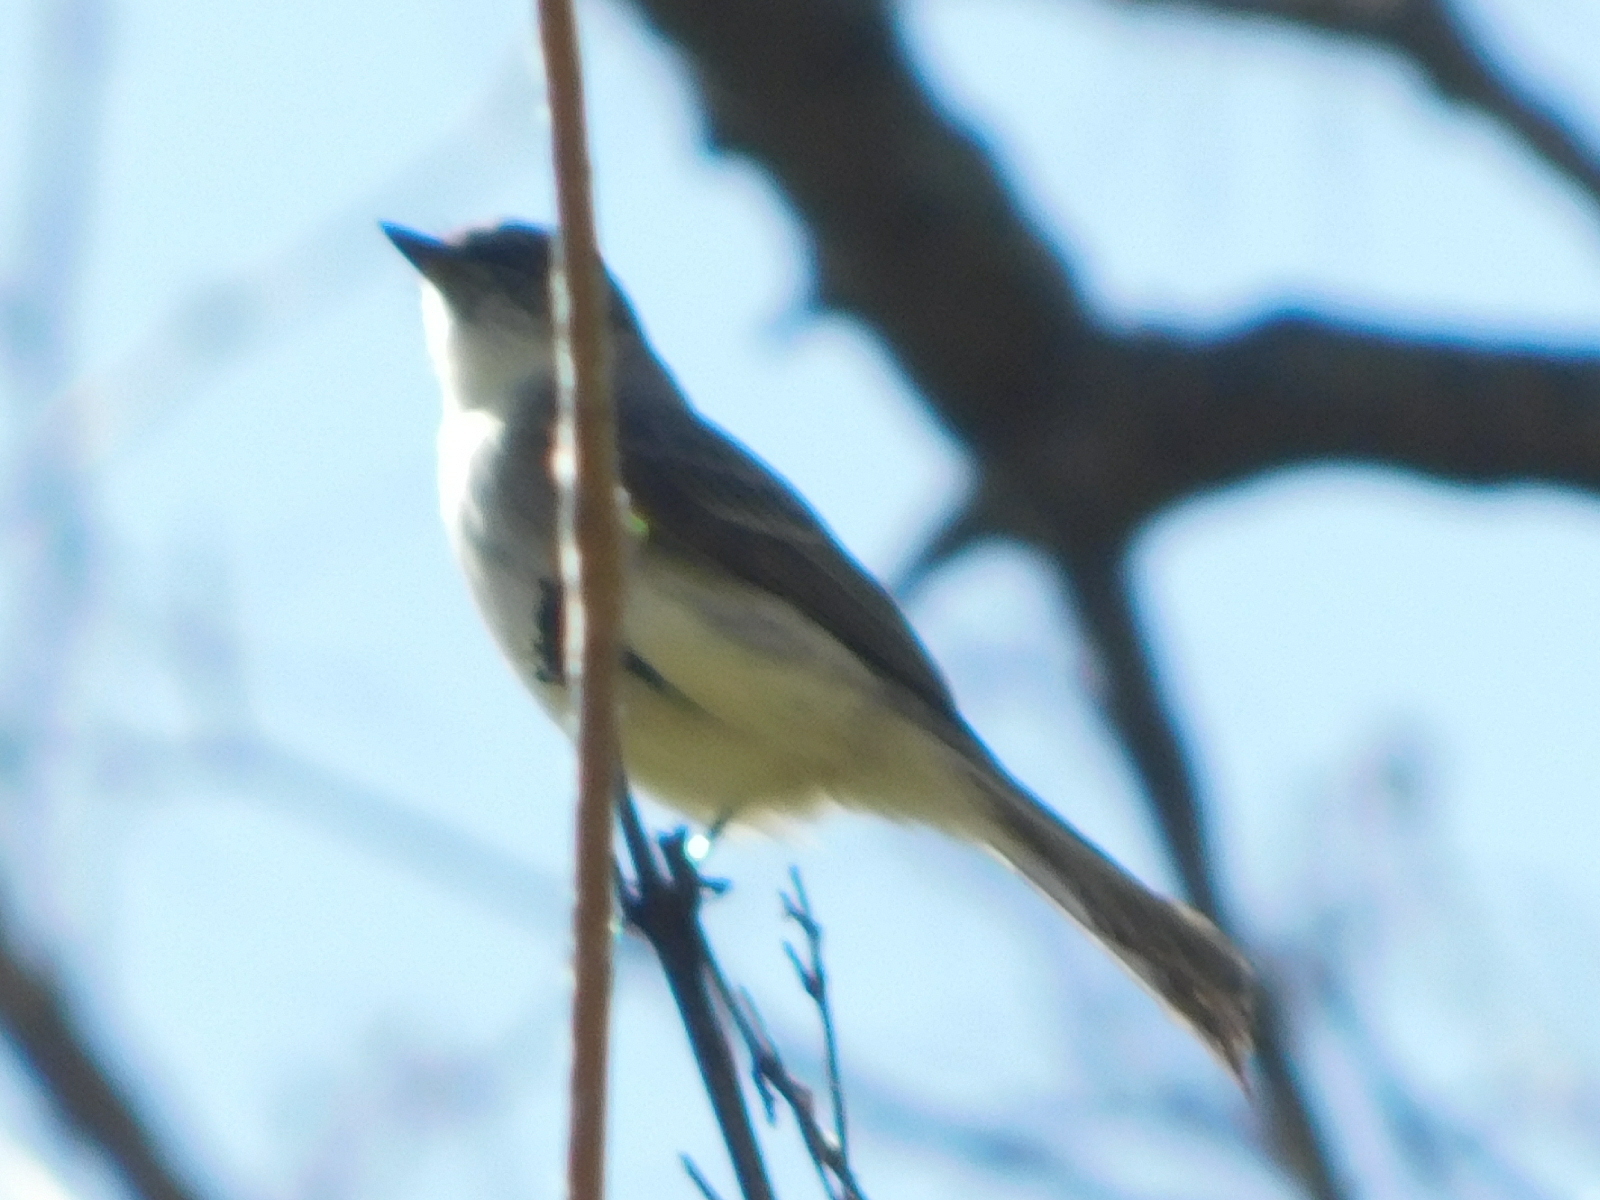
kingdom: Animalia
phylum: Chordata
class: Aves
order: Passeriformes
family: Tyrannidae
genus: Sayornis
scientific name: Sayornis phoebe
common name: Eastern phoebe
